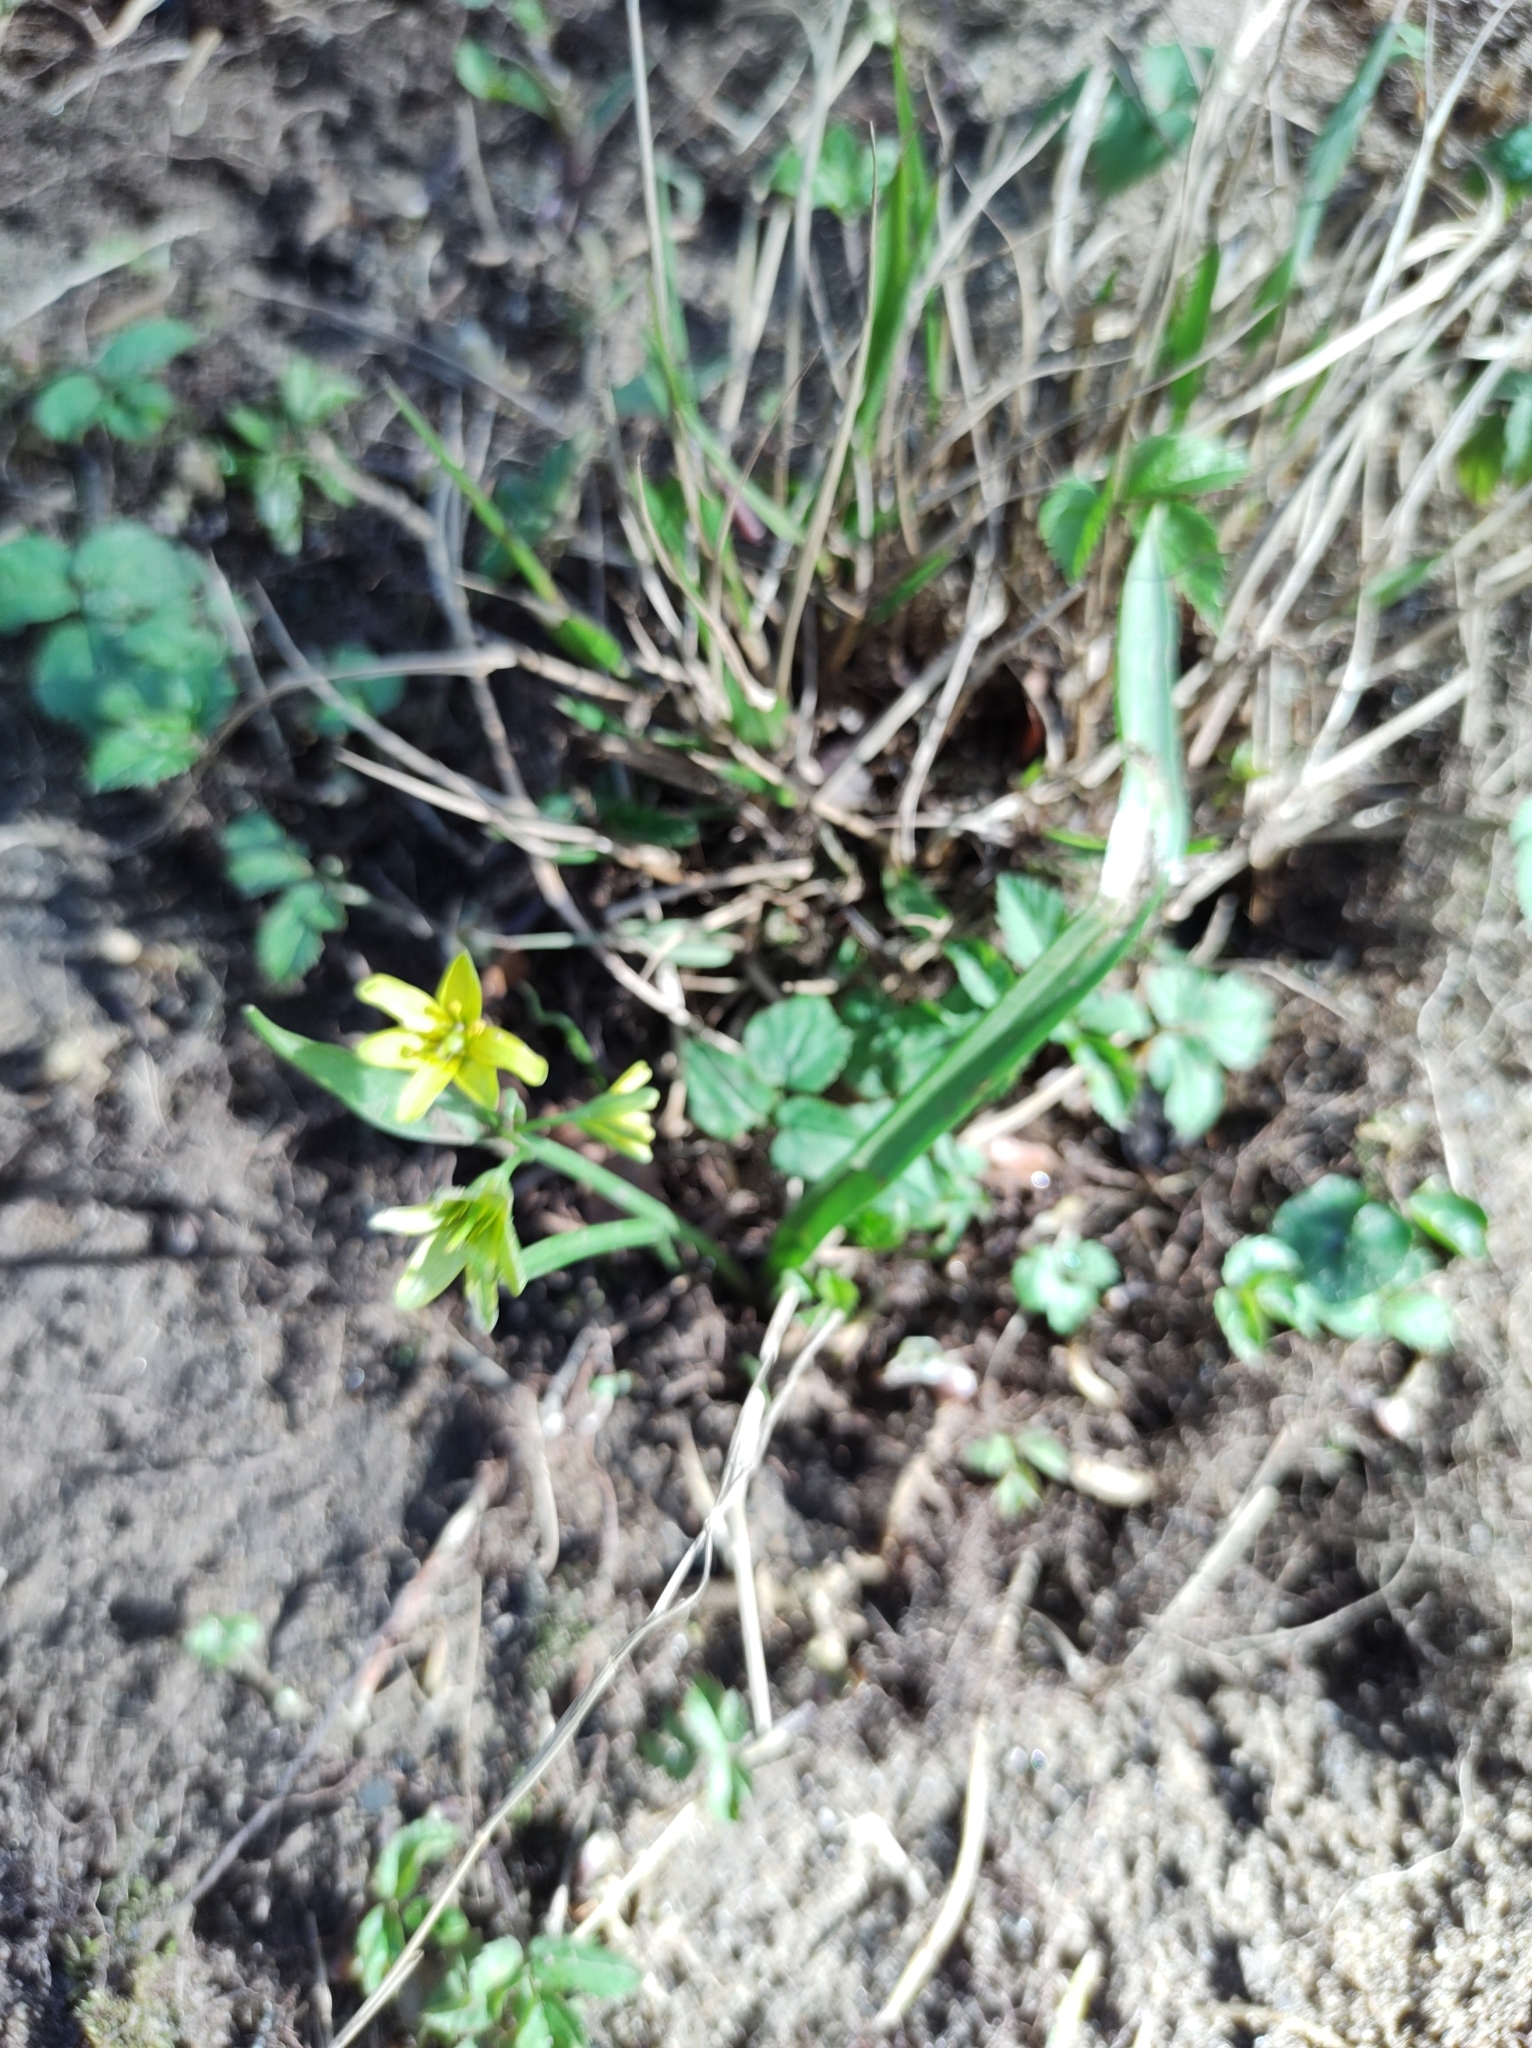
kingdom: Plantae
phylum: Tracheophyta
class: Liliopsida
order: Liliales
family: Liliaceae
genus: Gagea
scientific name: Gagea lutea
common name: Yellow star-of-bethlehem
